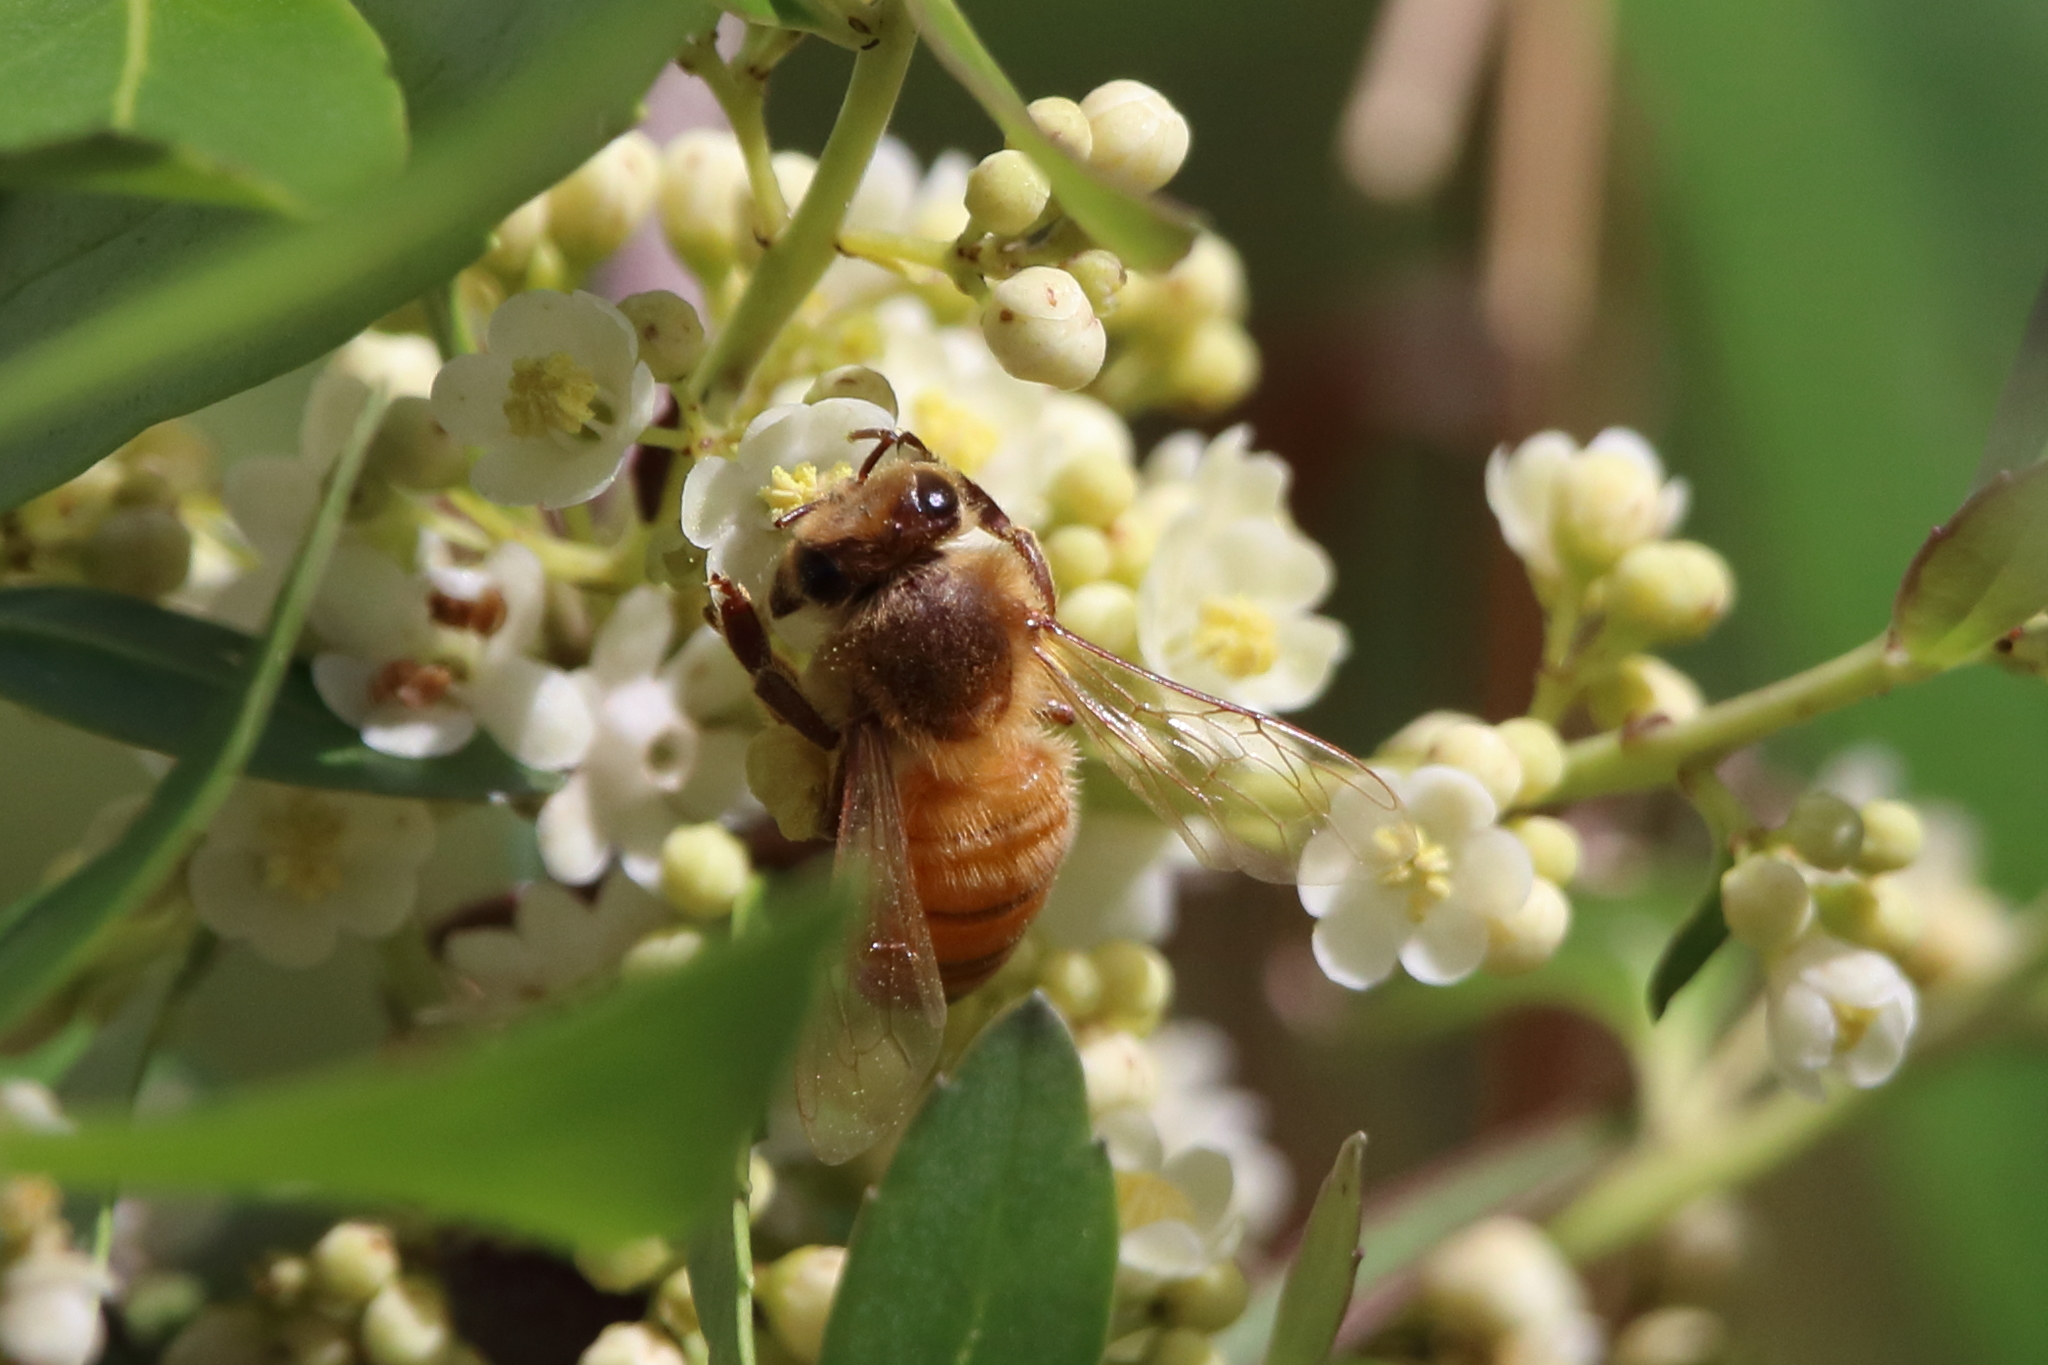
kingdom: Animalia
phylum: Arthropoda
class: Insecta
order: Hymenoptera
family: Apidae
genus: Apis
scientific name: Apis mellifera
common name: Honey bee
